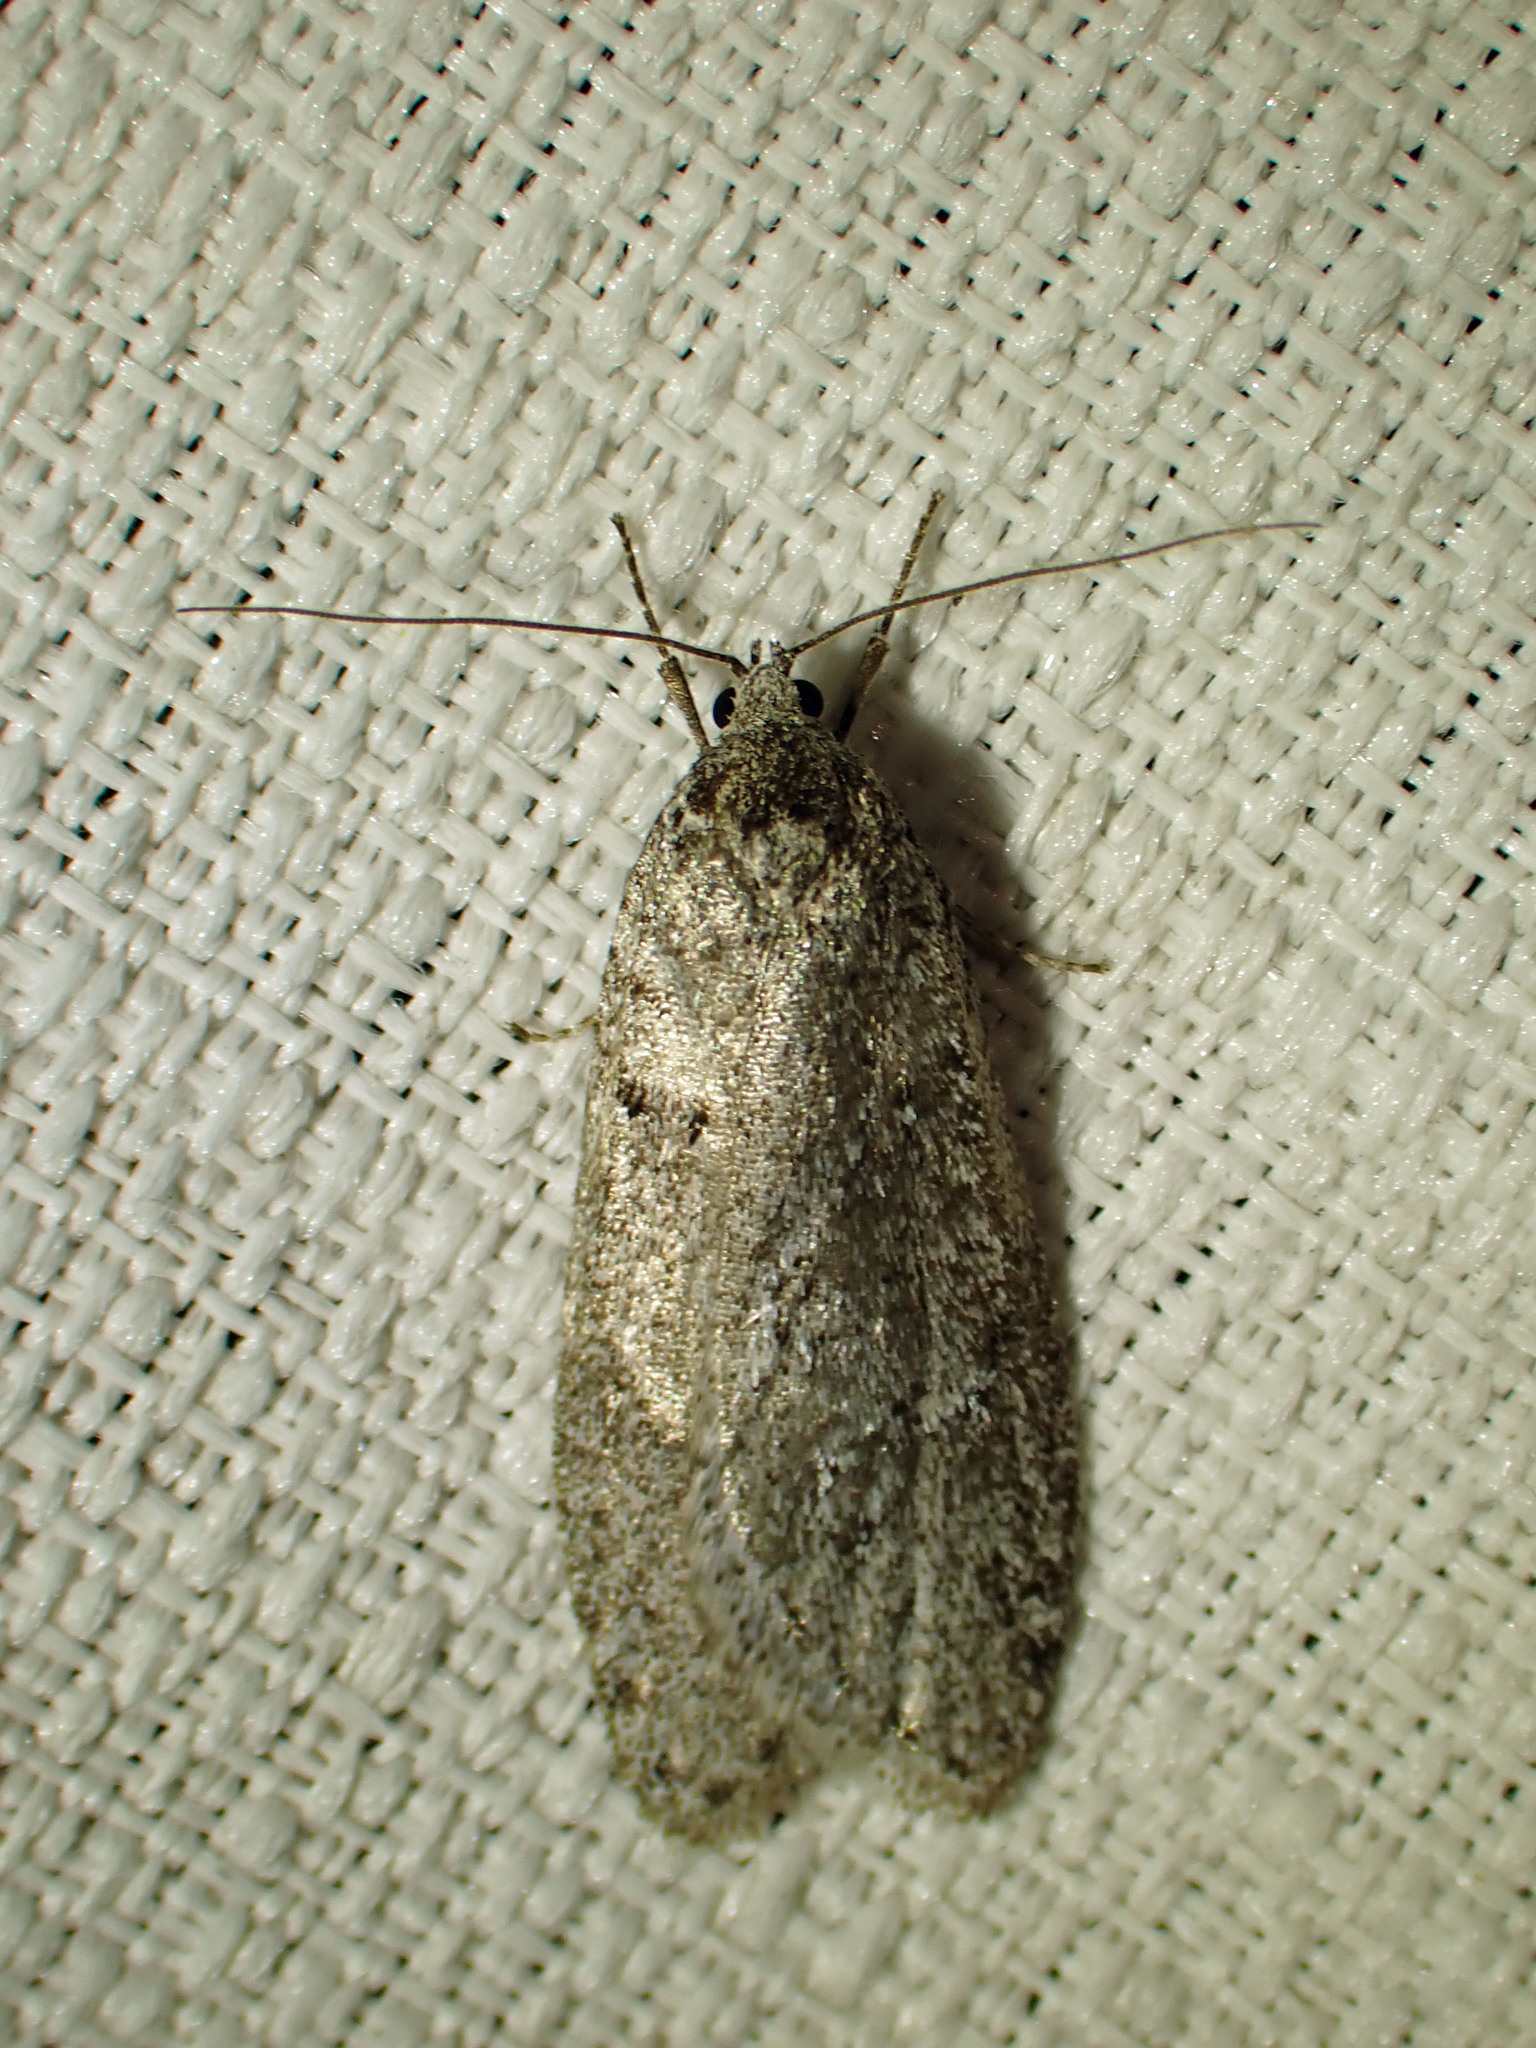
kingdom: Animalia
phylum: Arthropoda
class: Insecta
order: Lepidoptera
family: Depressariidae
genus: Semioscopis
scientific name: Semioscopis inornata
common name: Poplar micromoth
